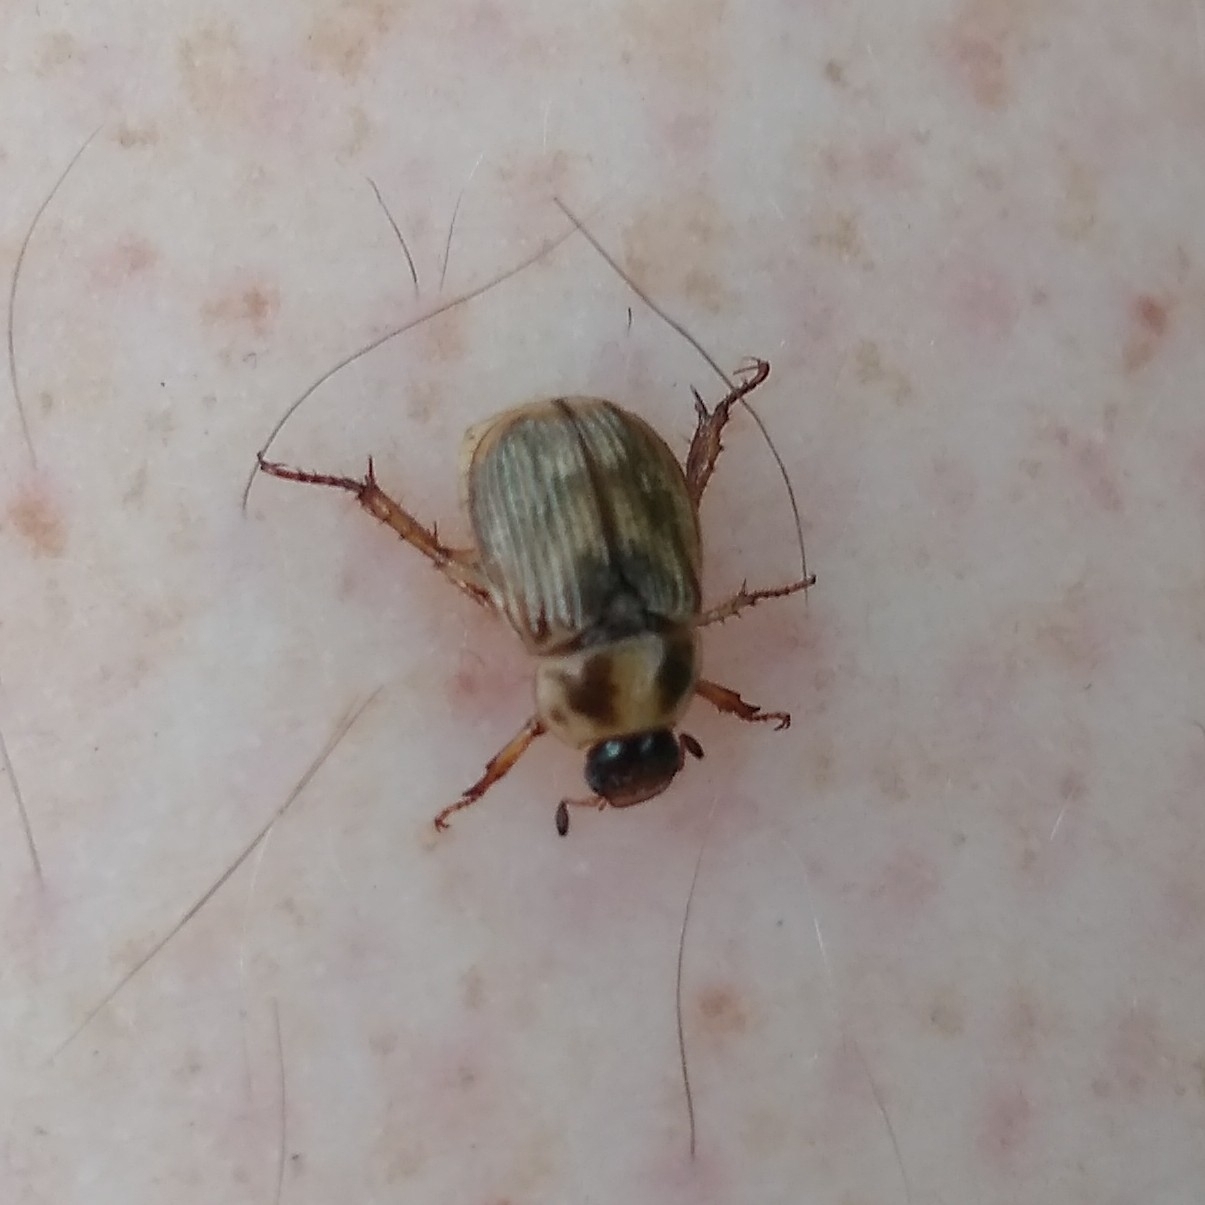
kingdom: Animalia
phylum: Arthropoda
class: Insecta
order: Coleoptera
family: Scarabaeidae
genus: Exomala
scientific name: Exomala orientalis
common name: Oriental beetle
